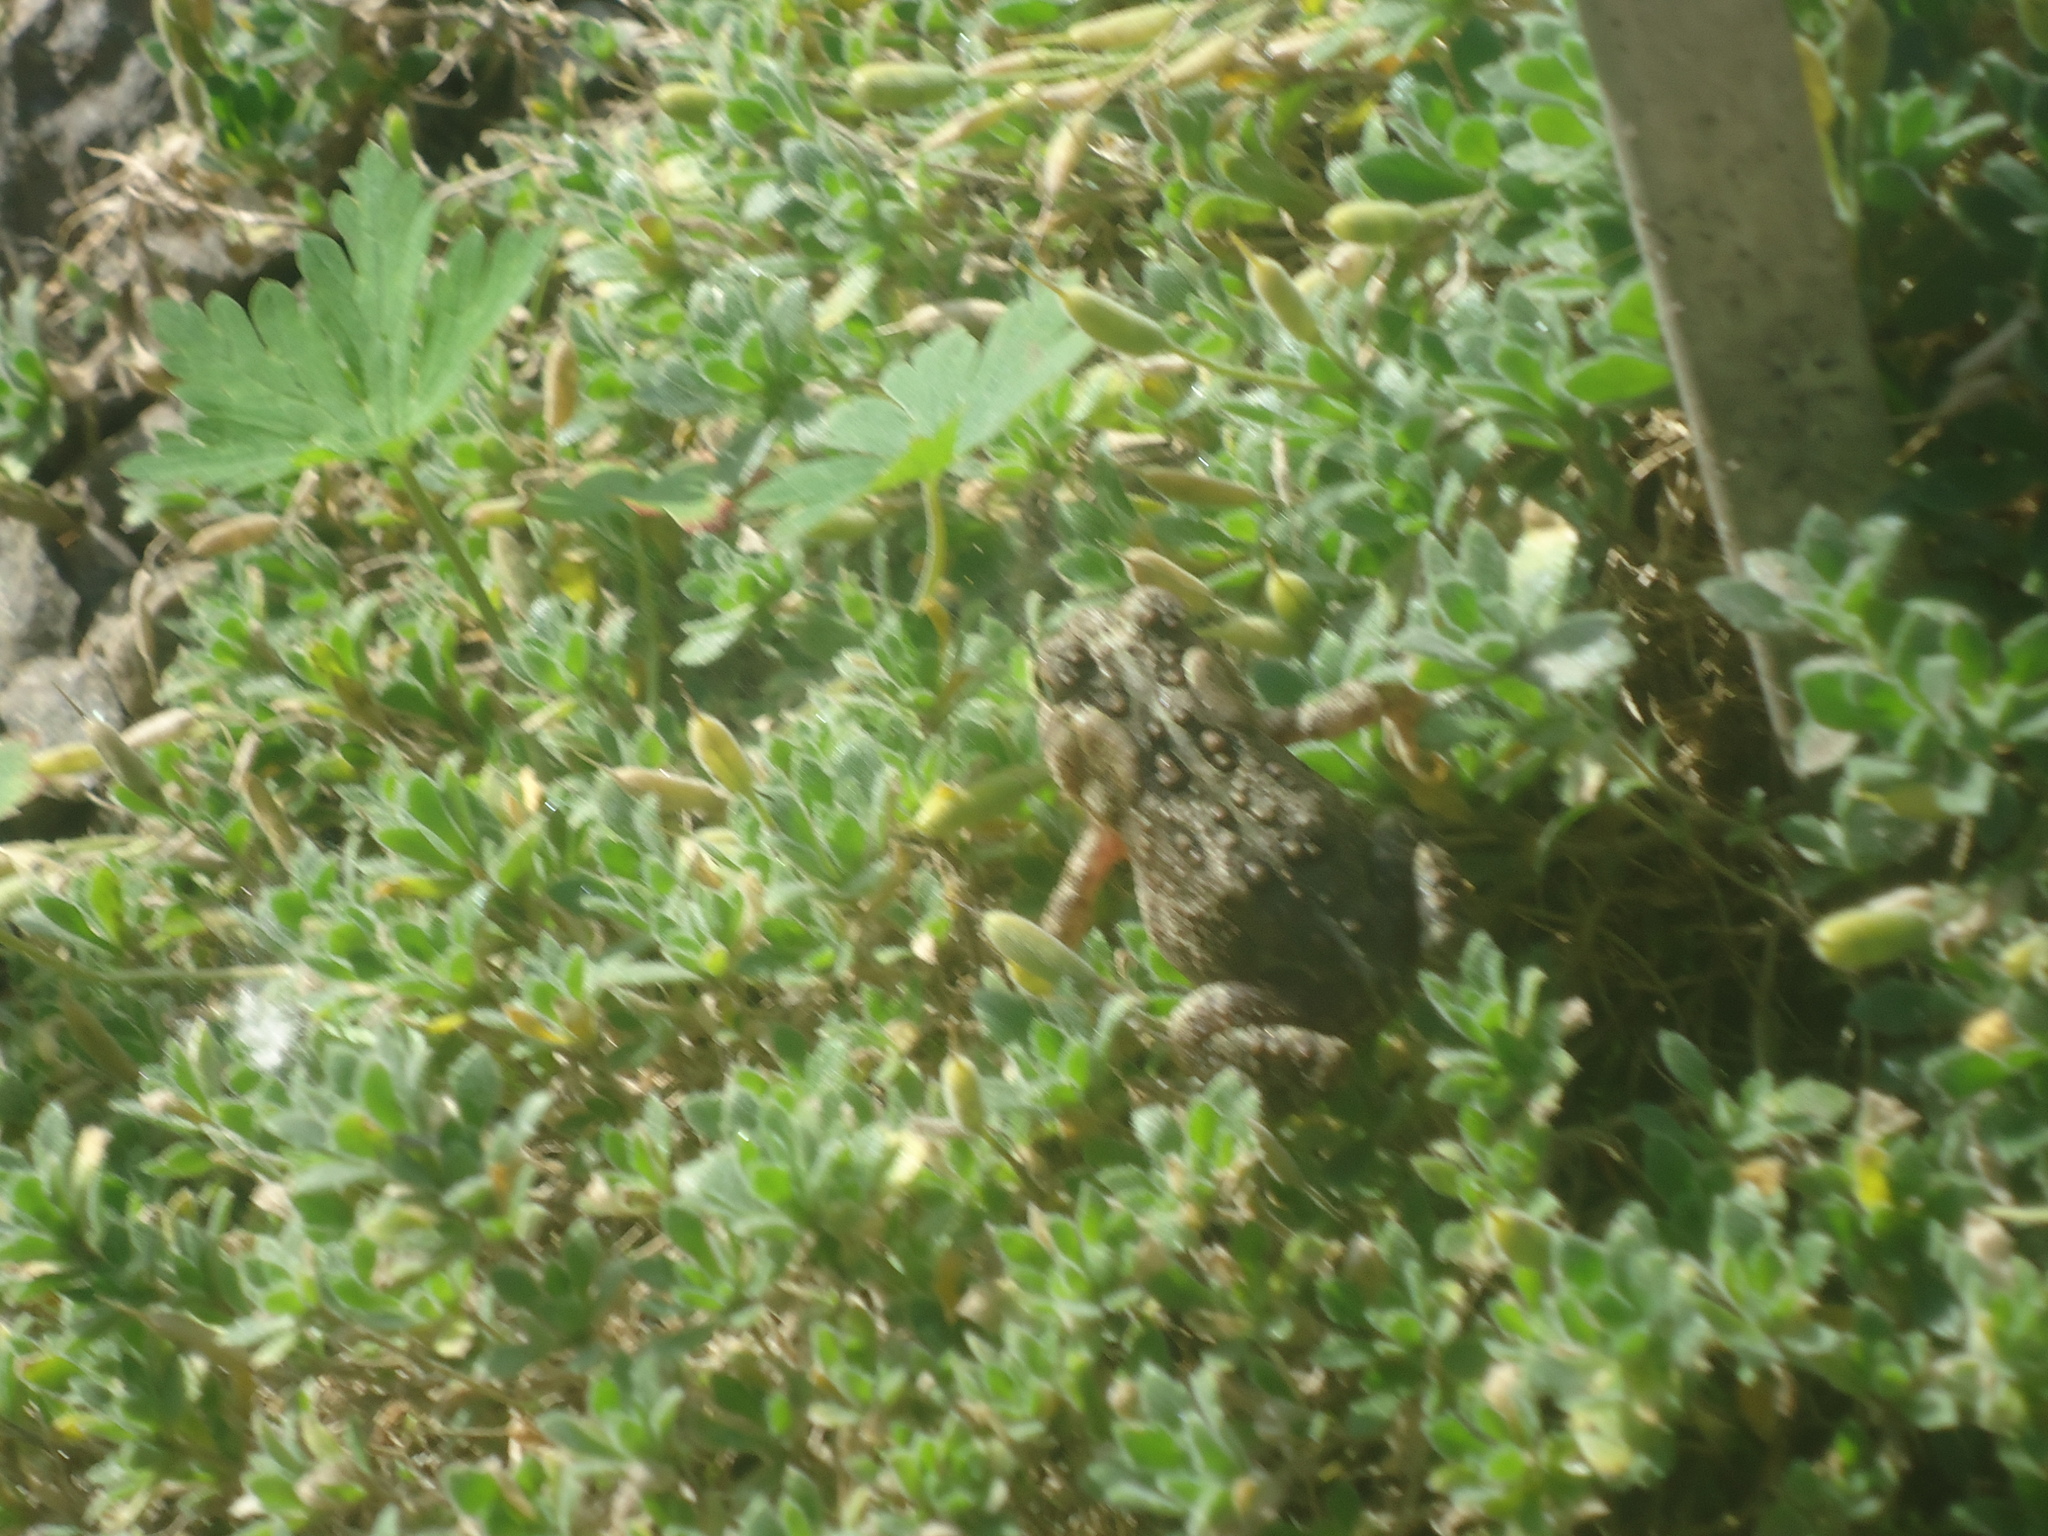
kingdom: Animalia
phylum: Chordata
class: Amphibia
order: Anura
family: Bufonidae
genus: Anaxyrus
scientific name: Anaxyrus americanus
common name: American toad
